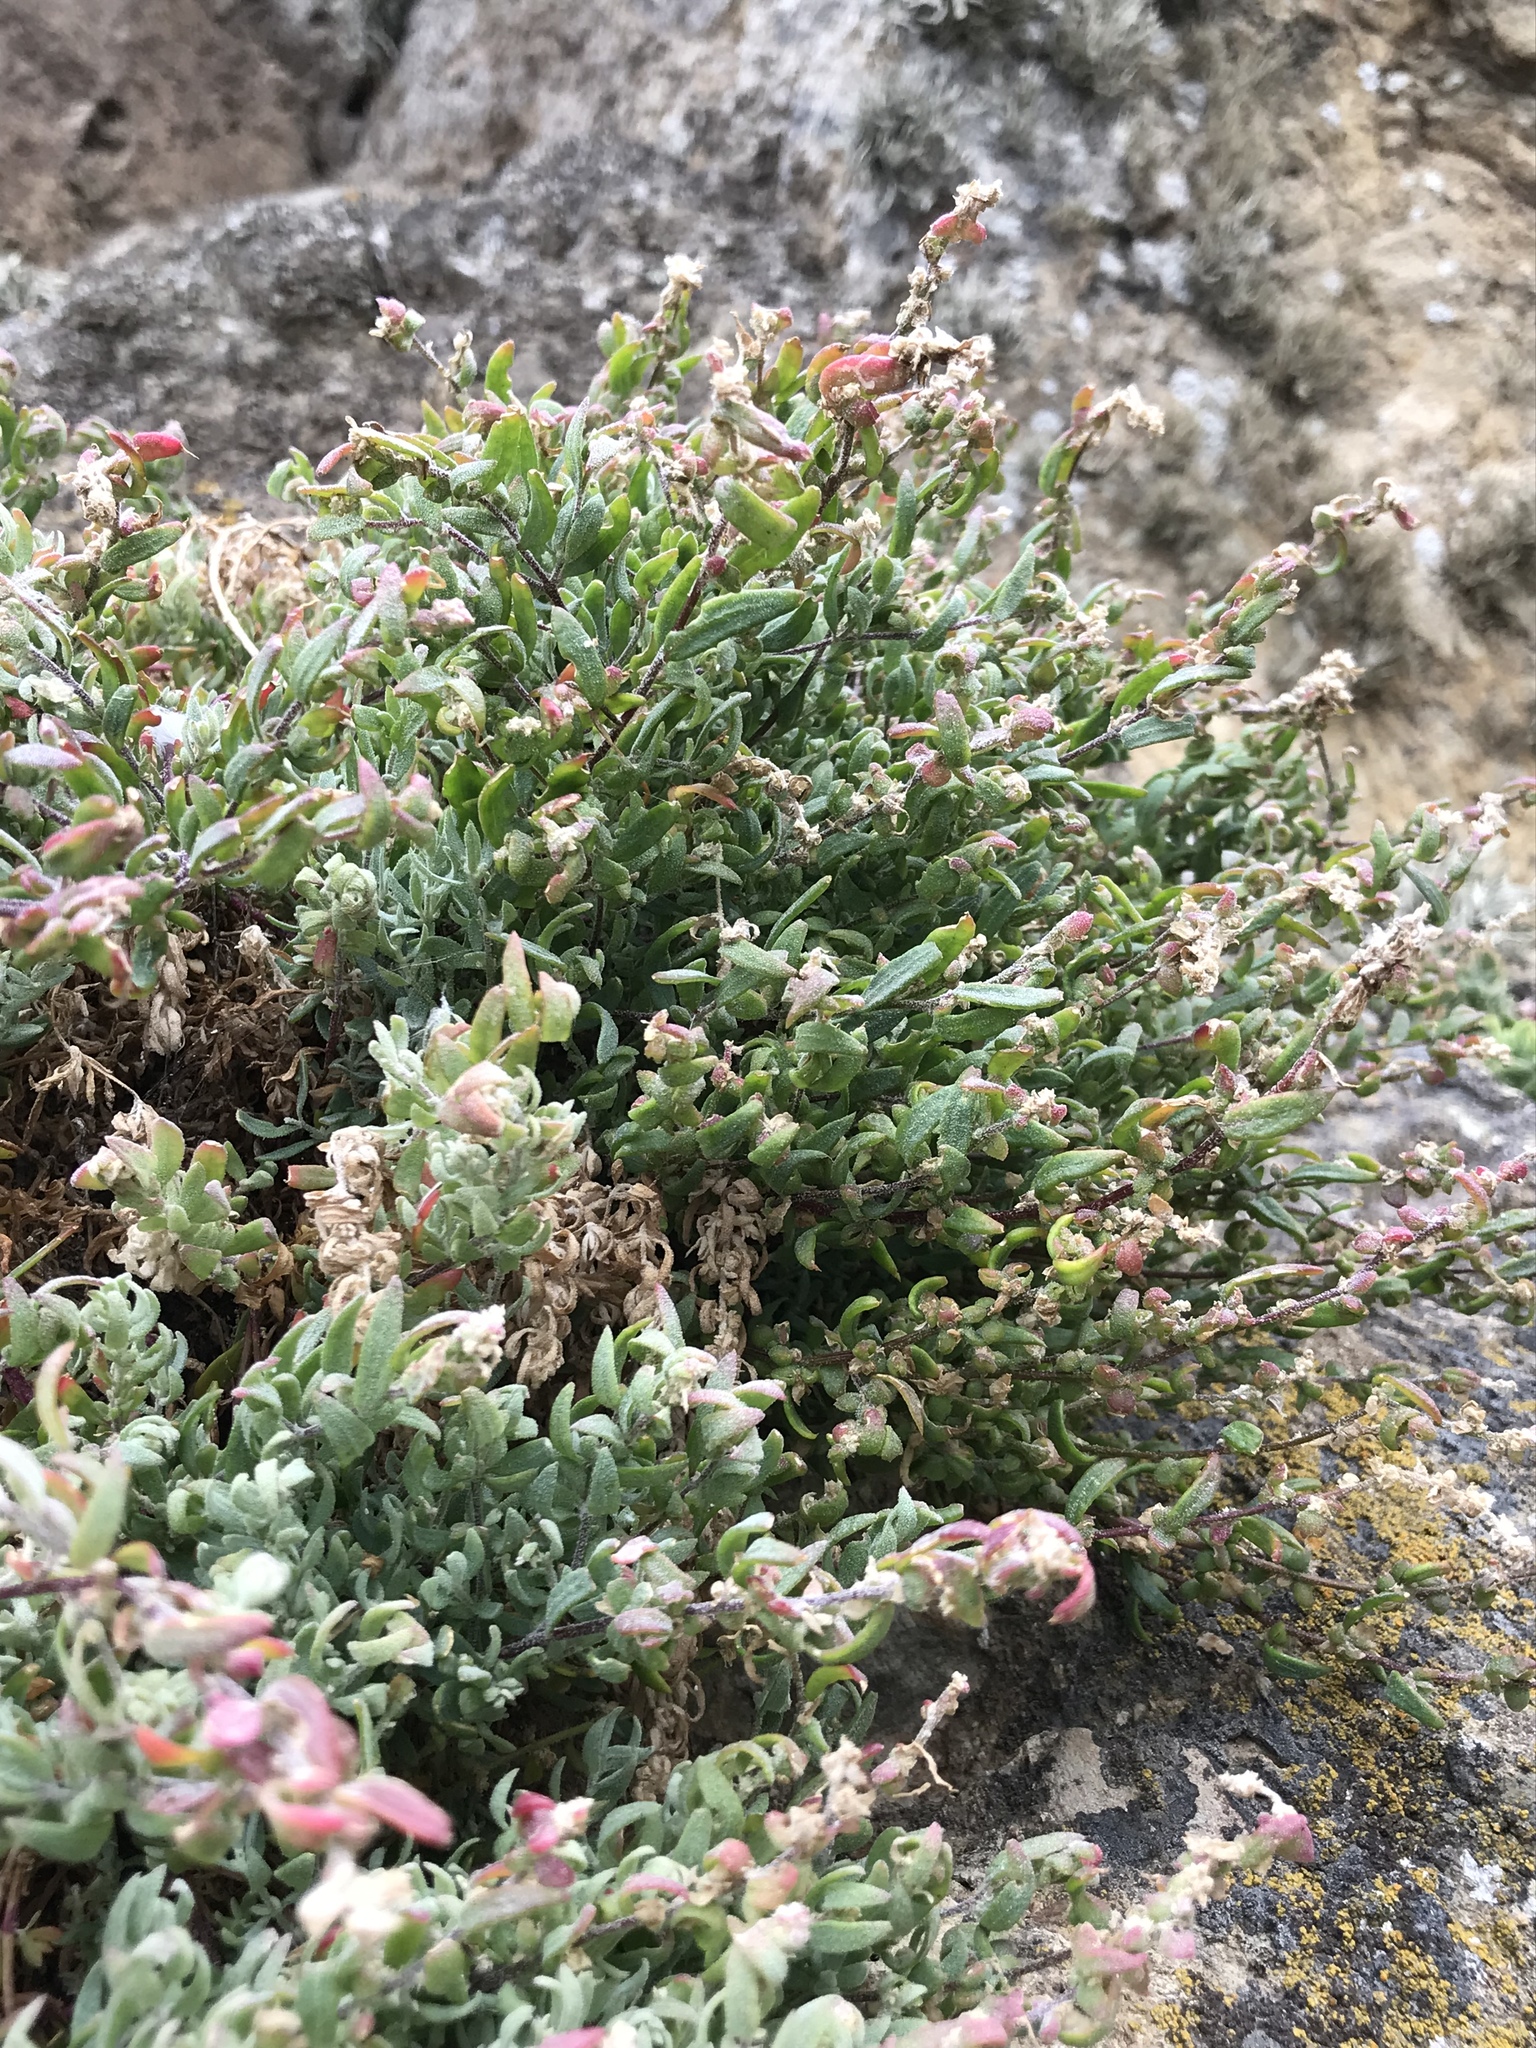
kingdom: Plantae
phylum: Tracheophyta
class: Magnoliopsida
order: Caryophyllales
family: Amaranthaceae
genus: Extriplex
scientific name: Extriplex californica
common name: California saltbush
